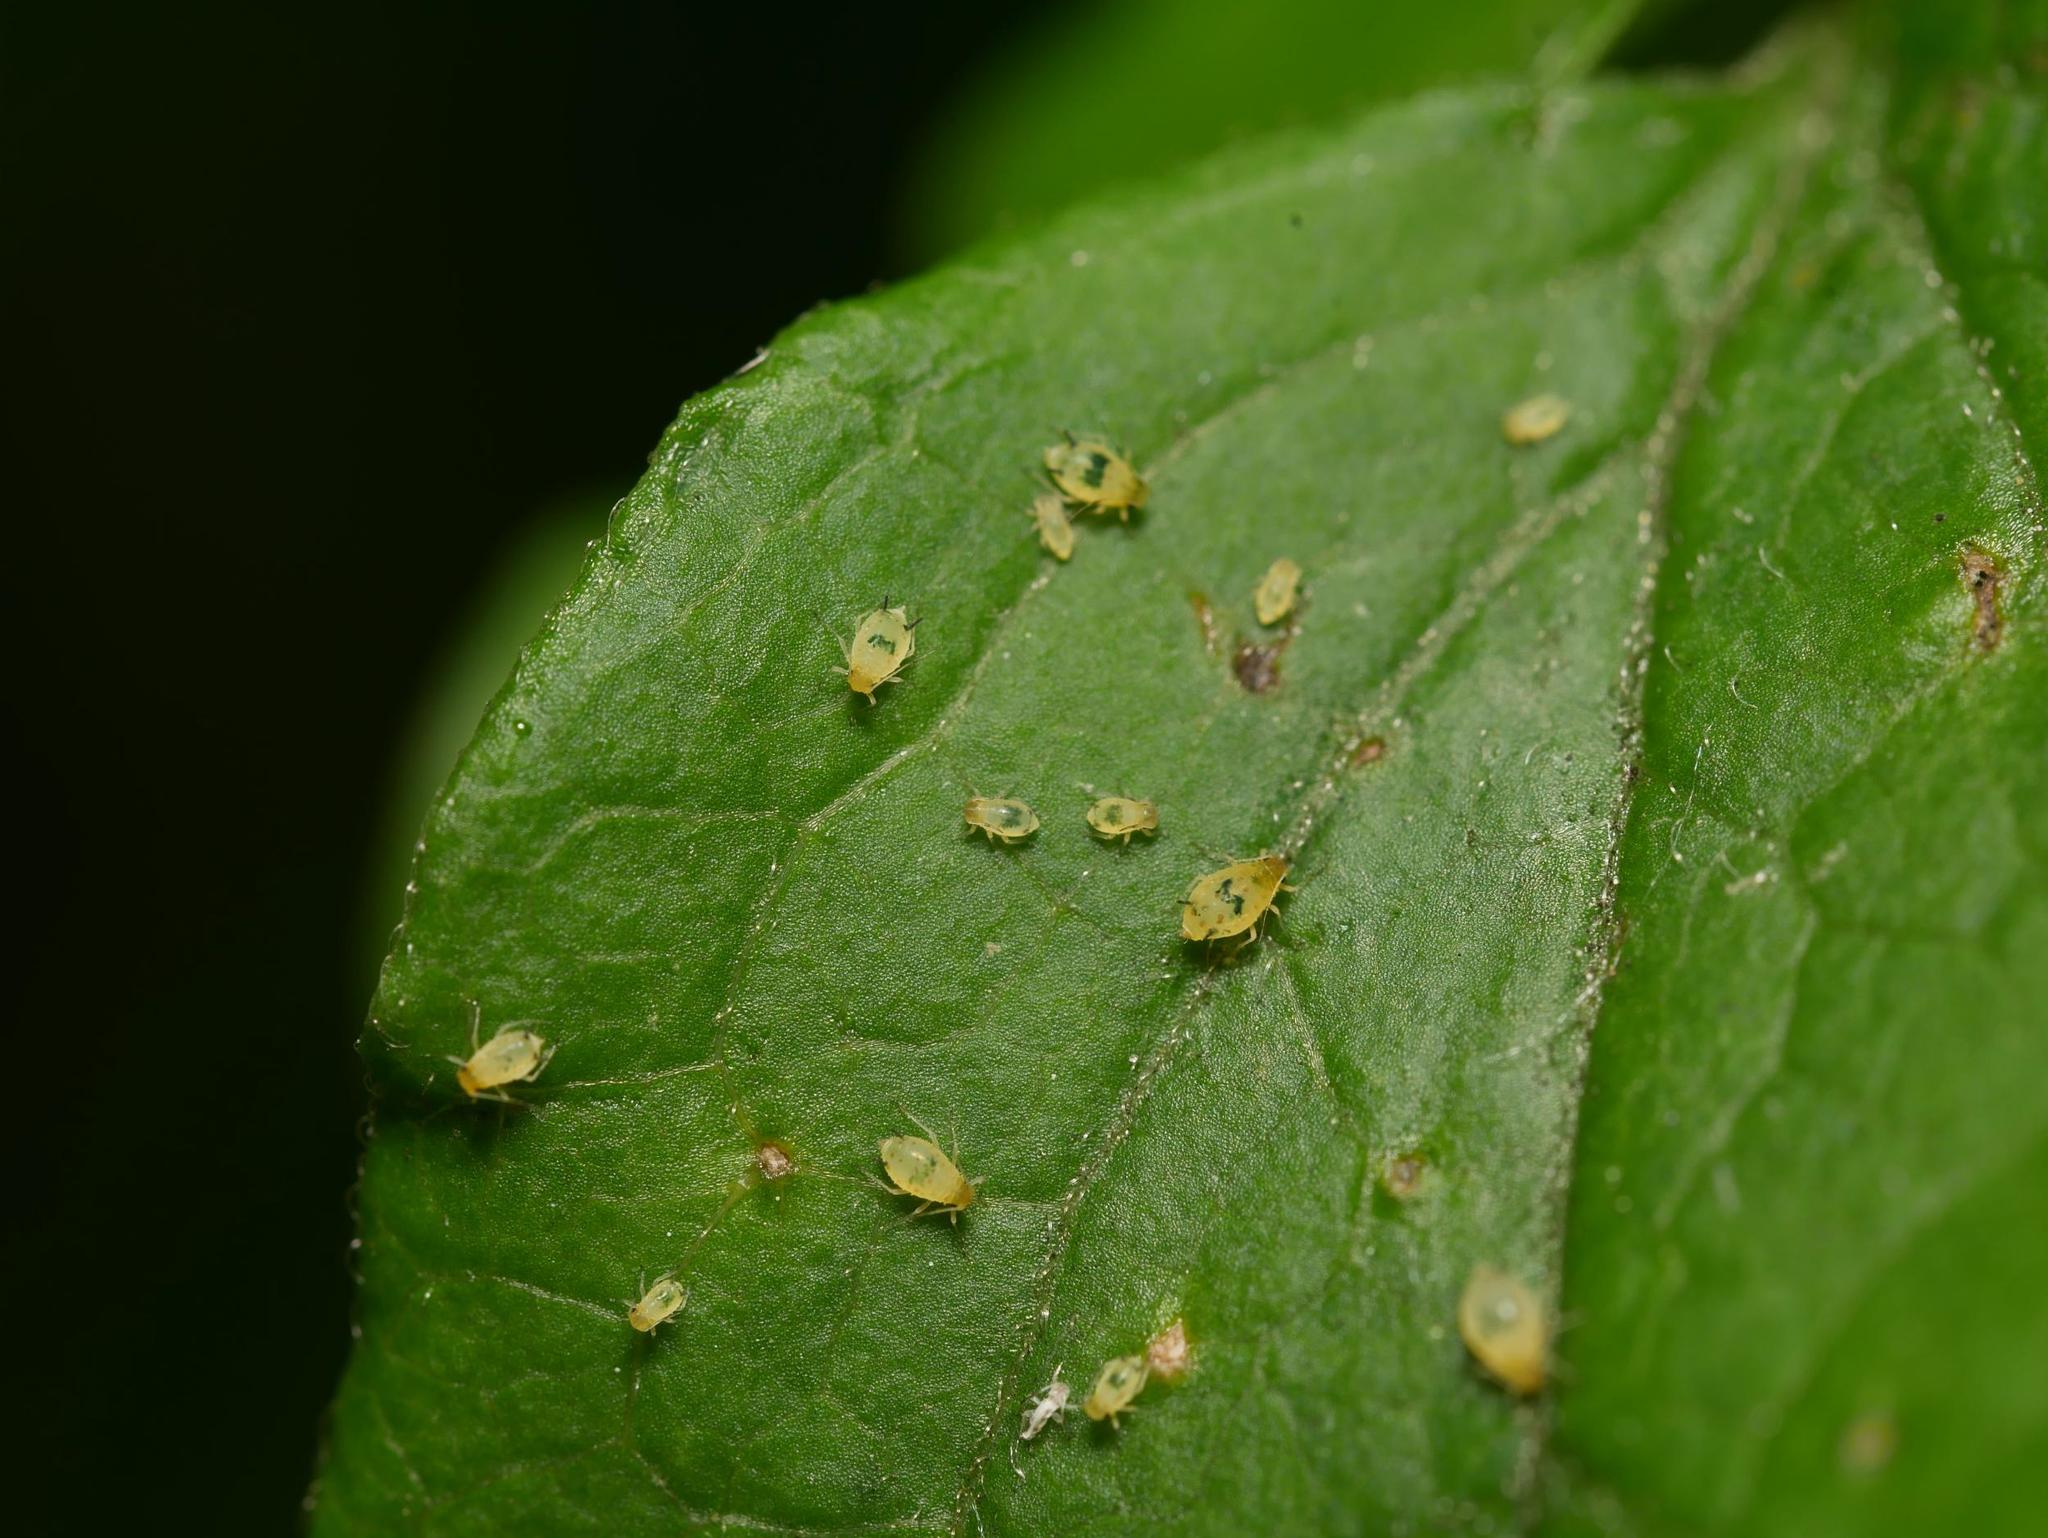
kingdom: Animalia
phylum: Arthropoda
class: Insecta
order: Hemiptera
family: Aphididae
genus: Aphis
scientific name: Aphis vitalbae
